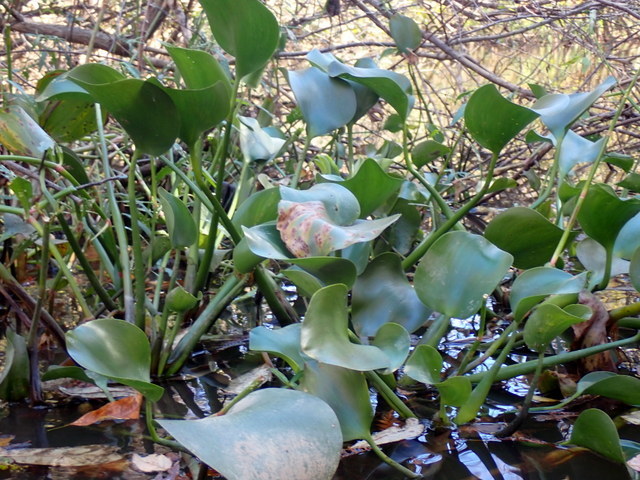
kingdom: Plantae
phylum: Tracheophyta
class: Liliopsida
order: Commelinales
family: Pontederiaceae
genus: Pontederia
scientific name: Pontederia crassipes
